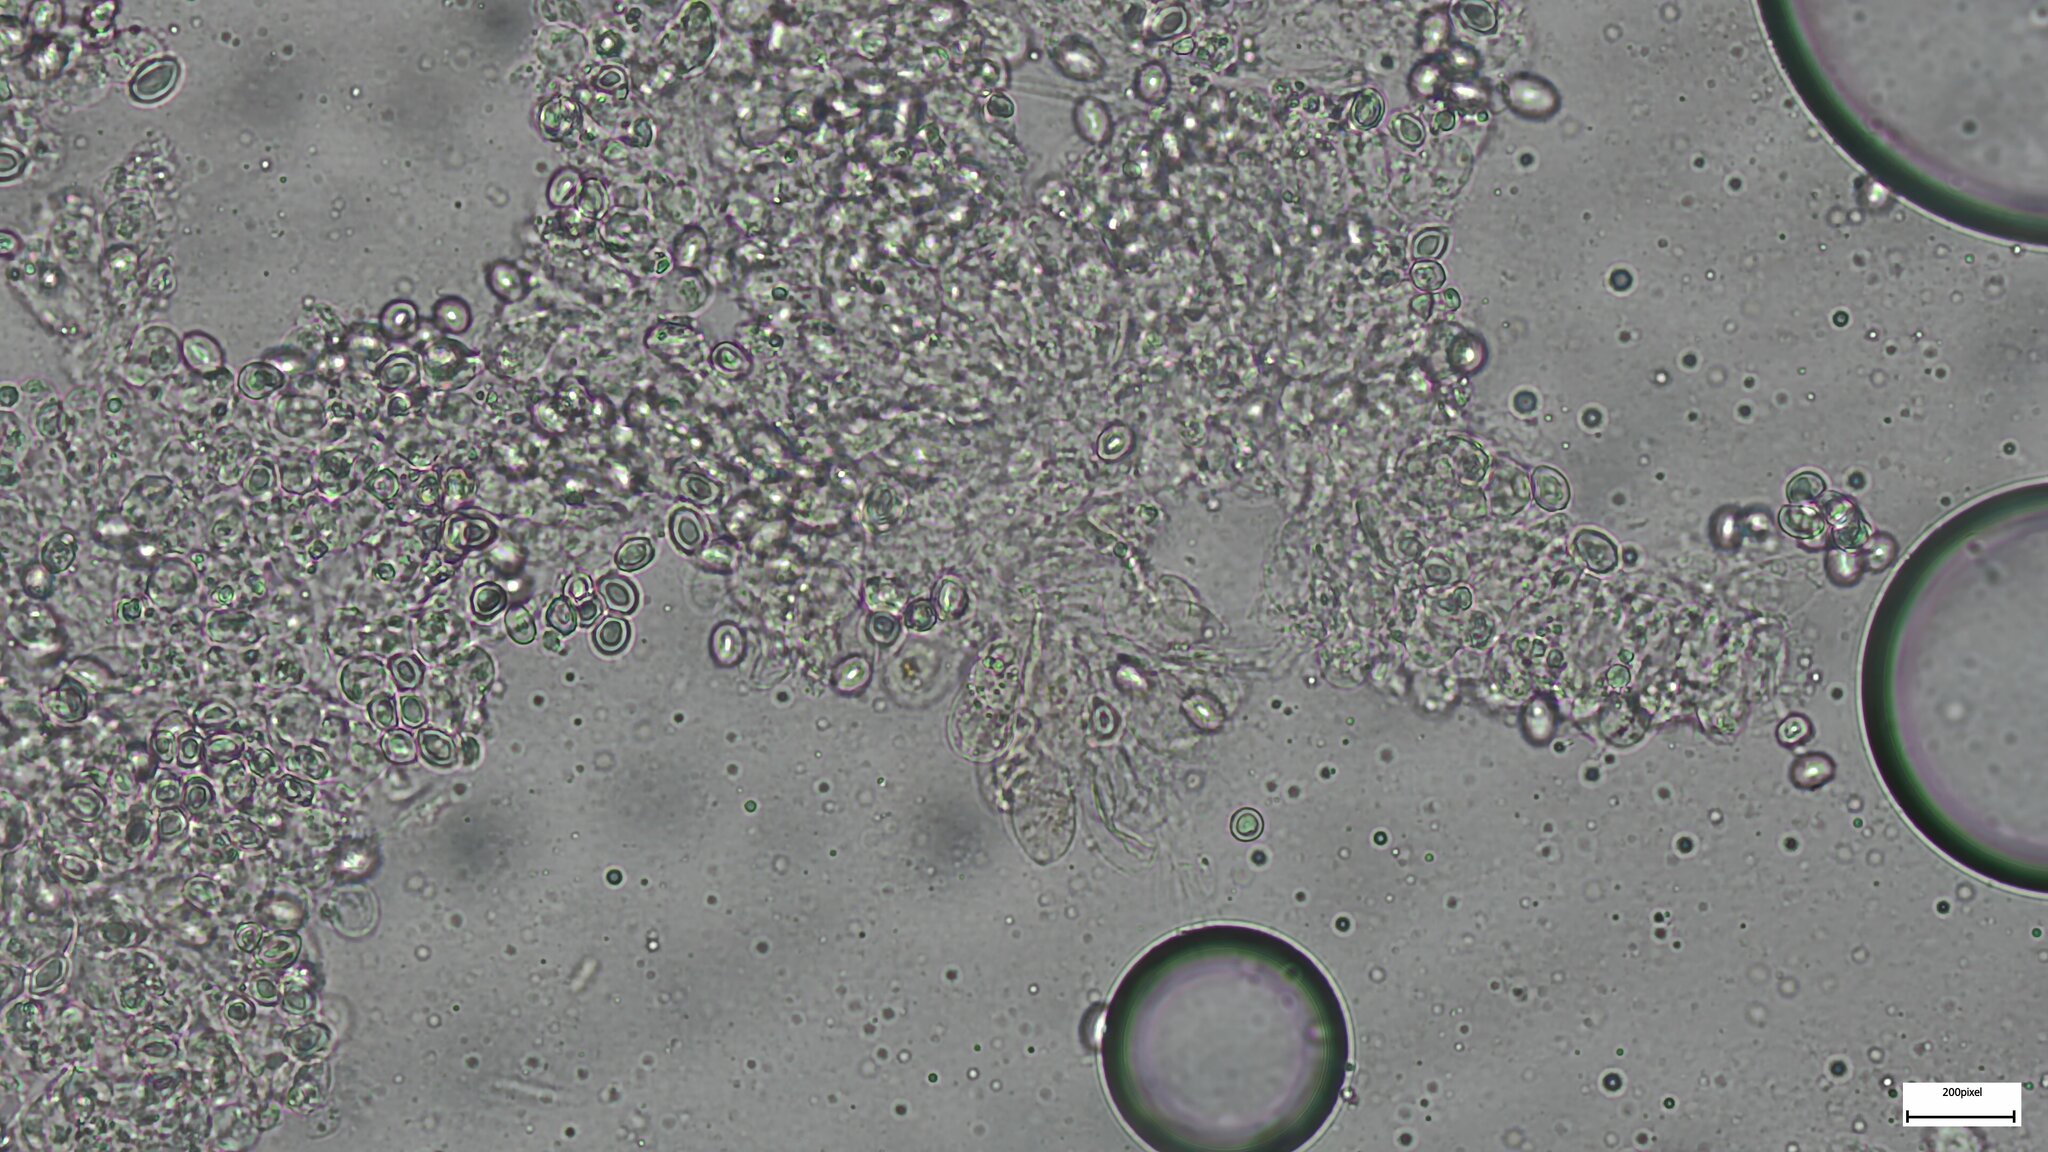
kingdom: Fungi
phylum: Basidiomycota
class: Agaricomycetes
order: Agaricales
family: Agaricaceae
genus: Leucoagaricus
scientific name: Leucoagaricus americanus
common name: Reddening lepiota
